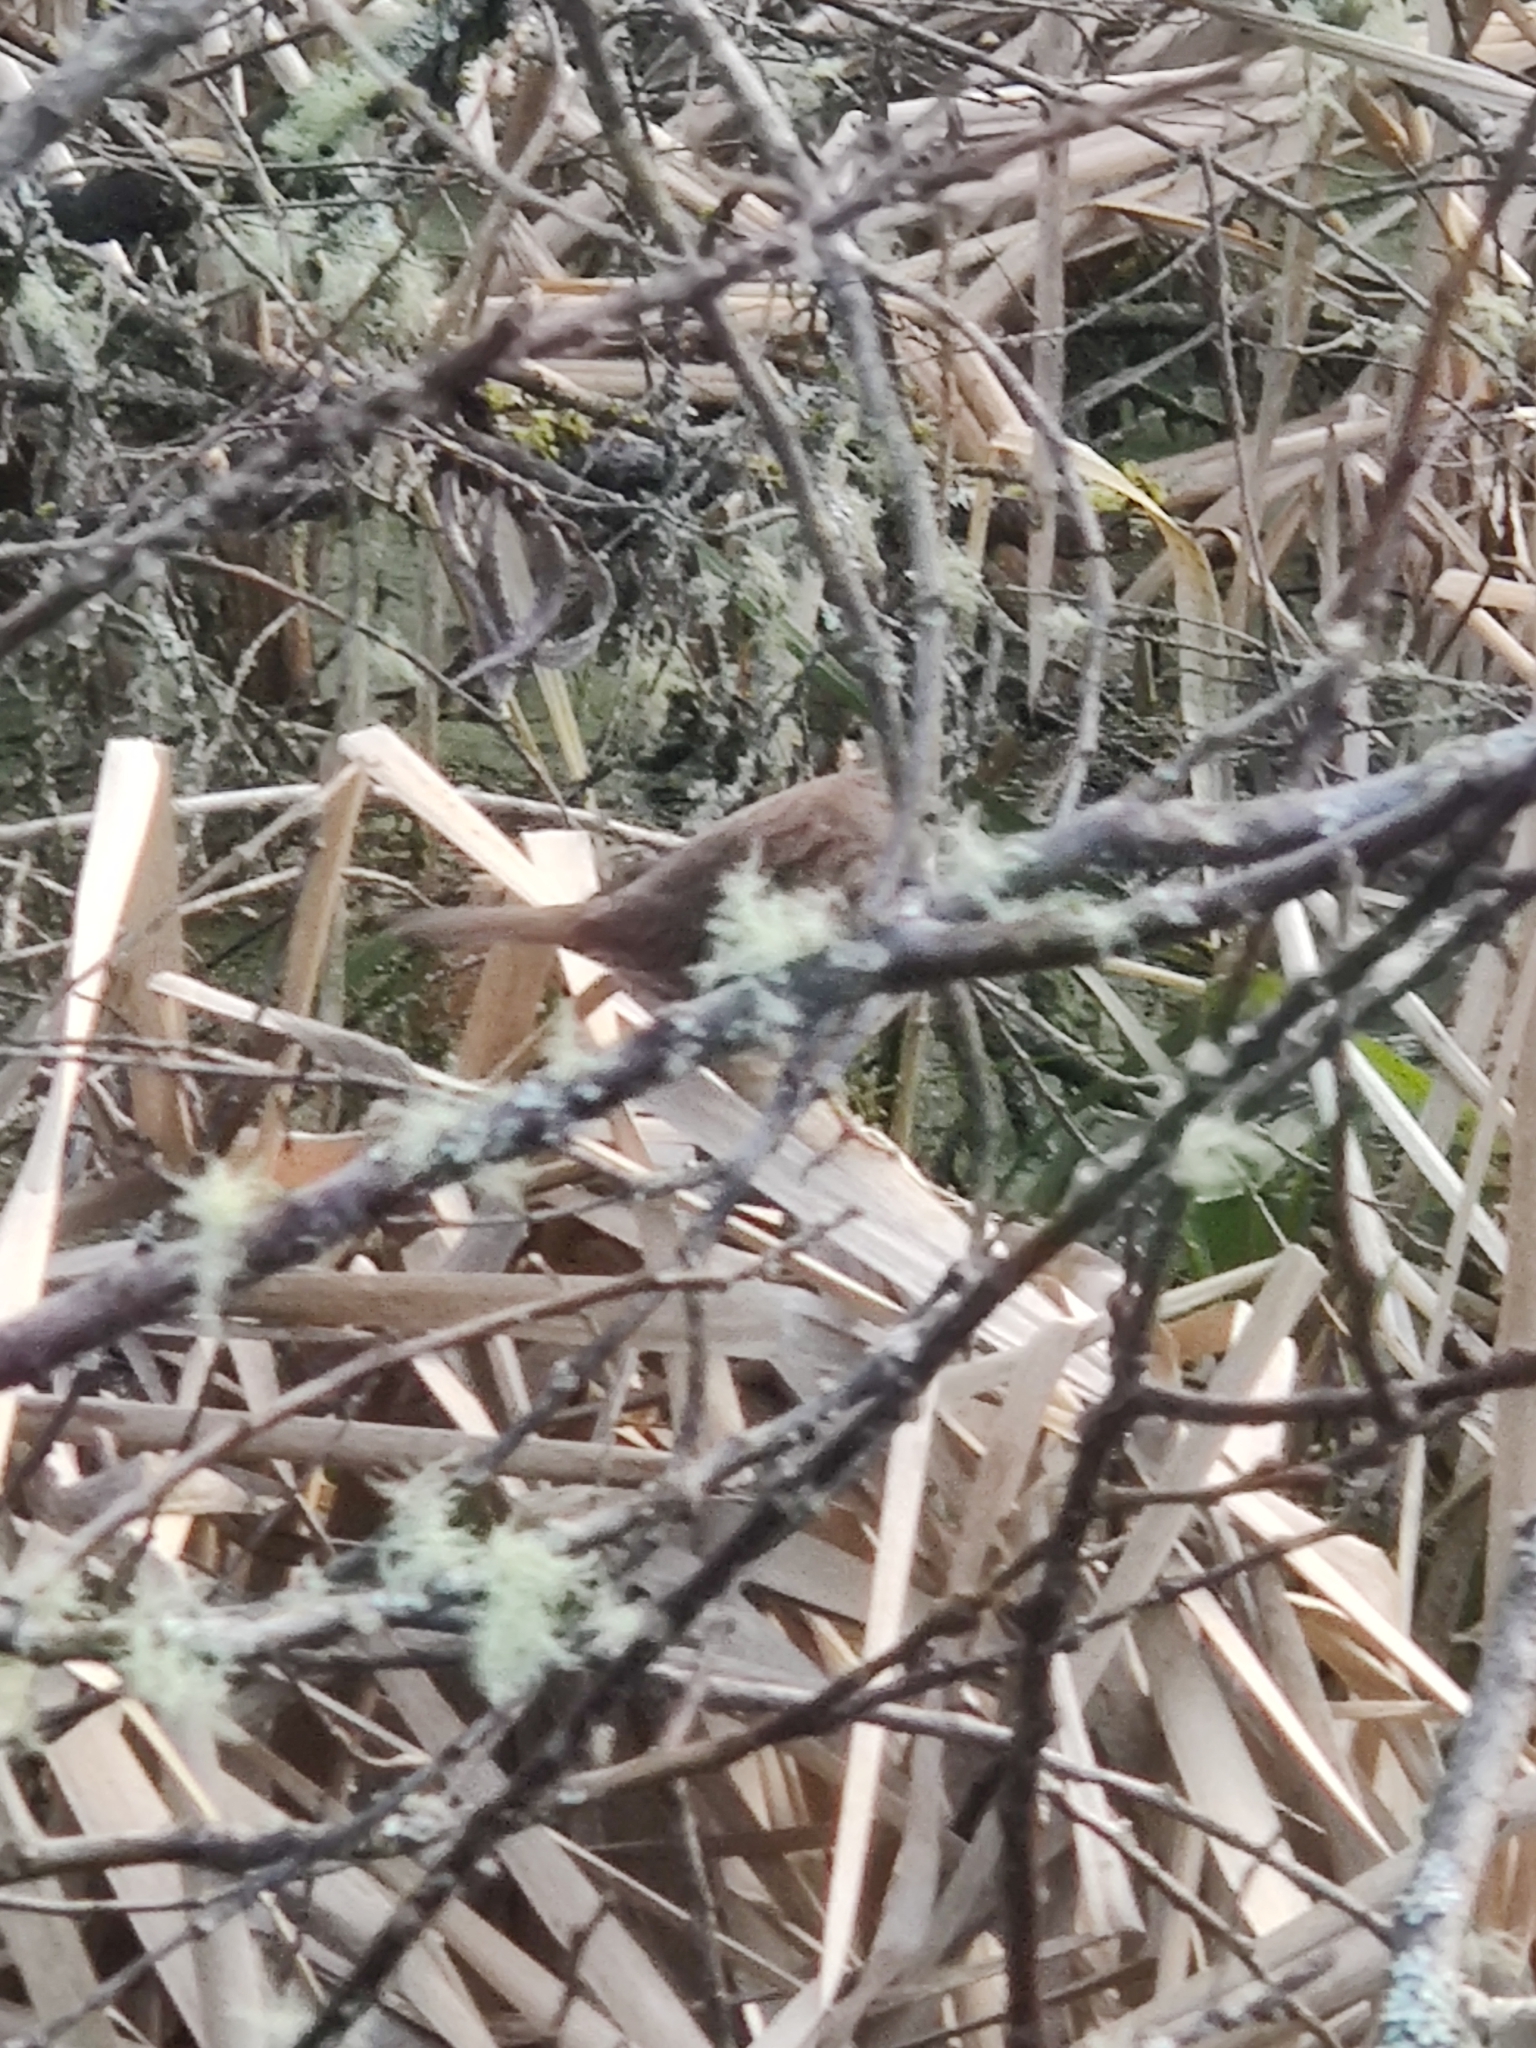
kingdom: Animalia
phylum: Chordata
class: Aves
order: Passeriformes
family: Passerellidae
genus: Melospiza
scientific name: Melospiza melodia
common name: Song sparrow
